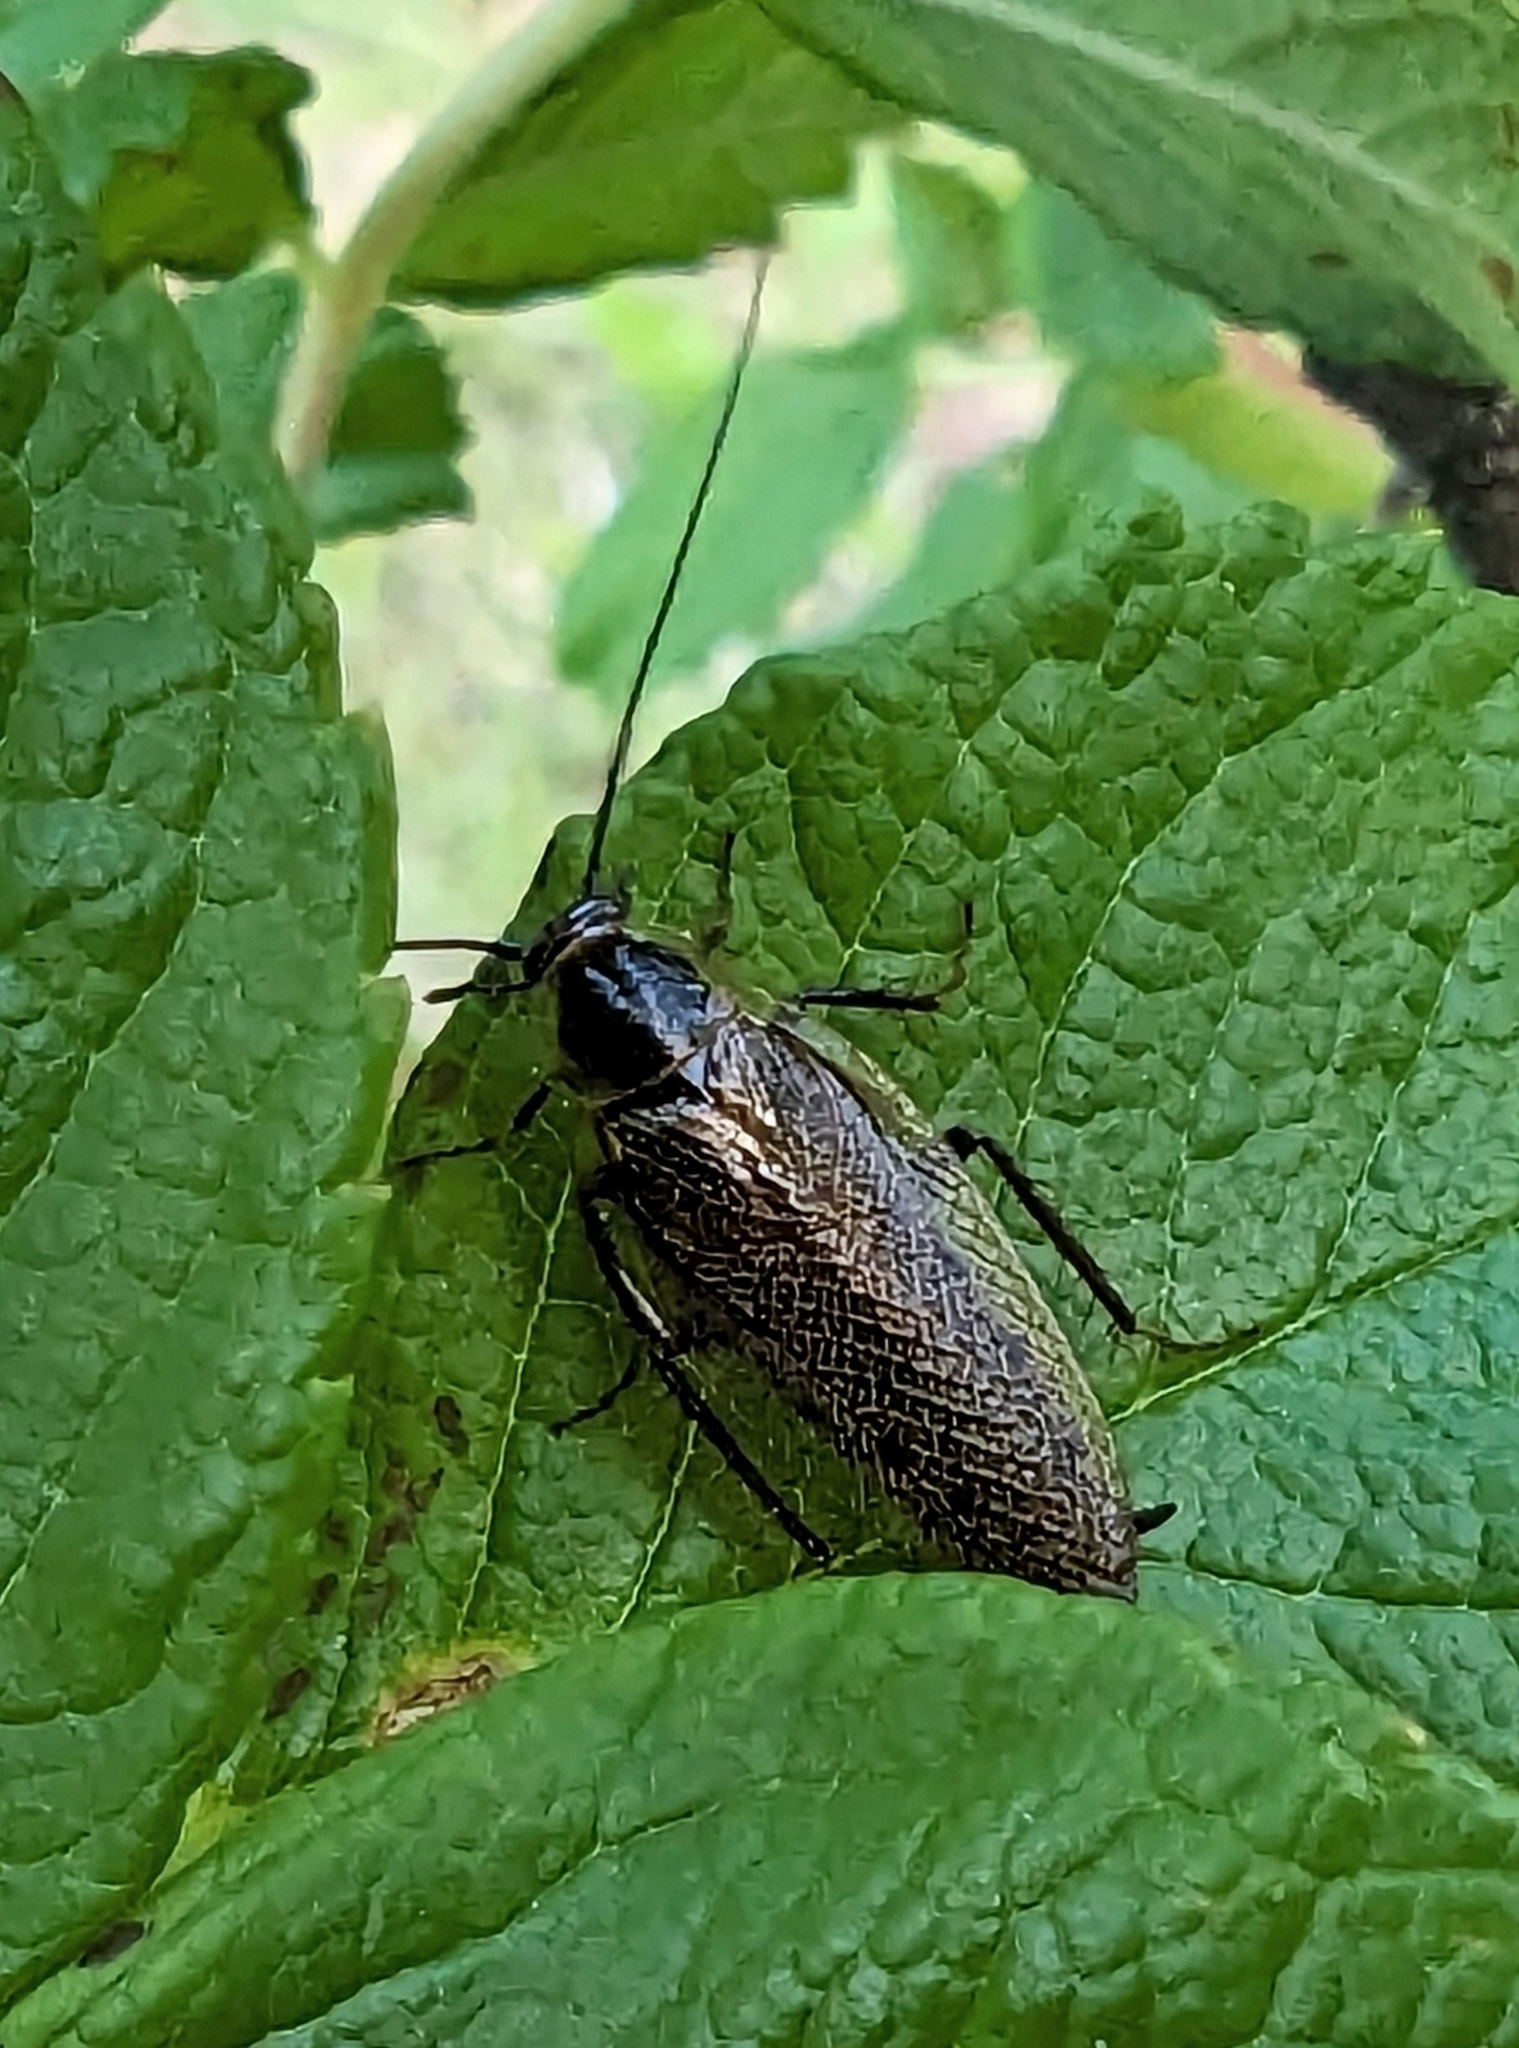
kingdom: Animalia
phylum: Arthropoda
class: Insecta
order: Blattodea
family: Ectobiidae
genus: Ectobius
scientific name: Ectobius lapponicus
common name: Dusky cockroach
